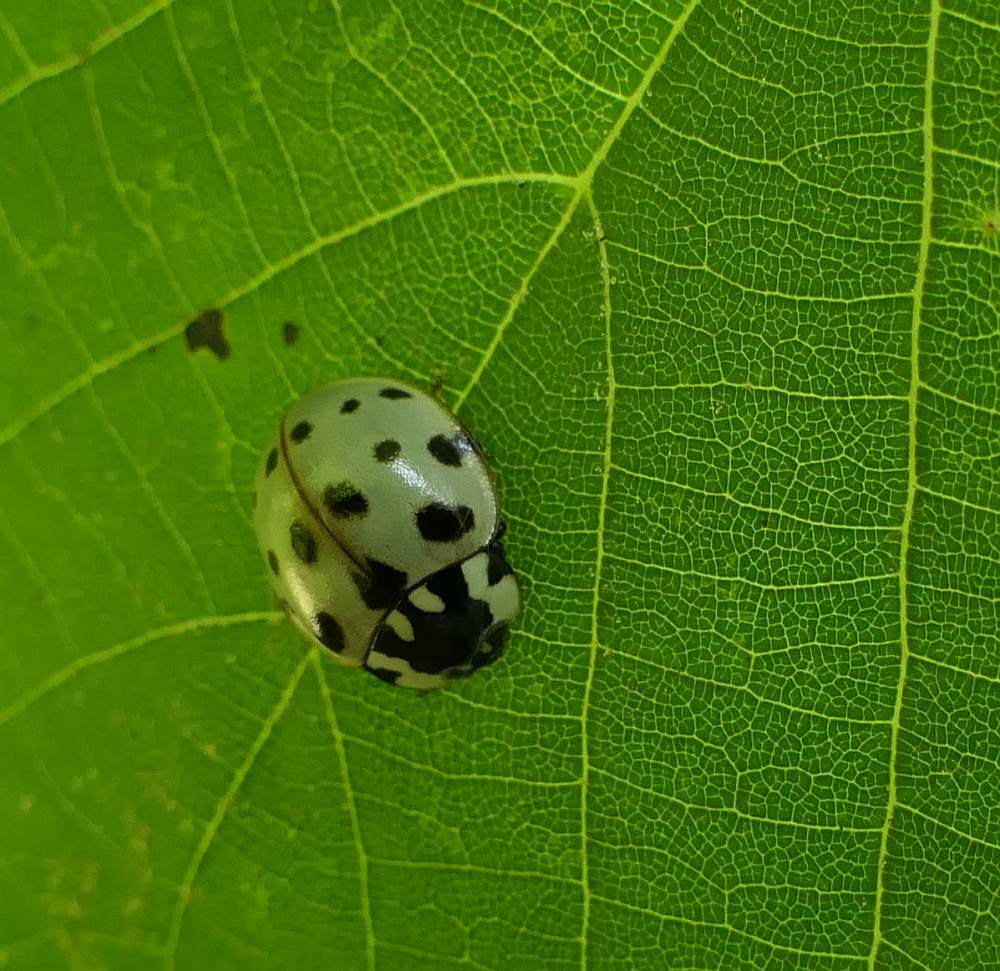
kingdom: Animalia
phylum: Arthropoda
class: Insecta
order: Coleoptera
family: Coccinellidae
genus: Anatis
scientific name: Anatis labiculata
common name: Fifteen-spotted lady beetle
